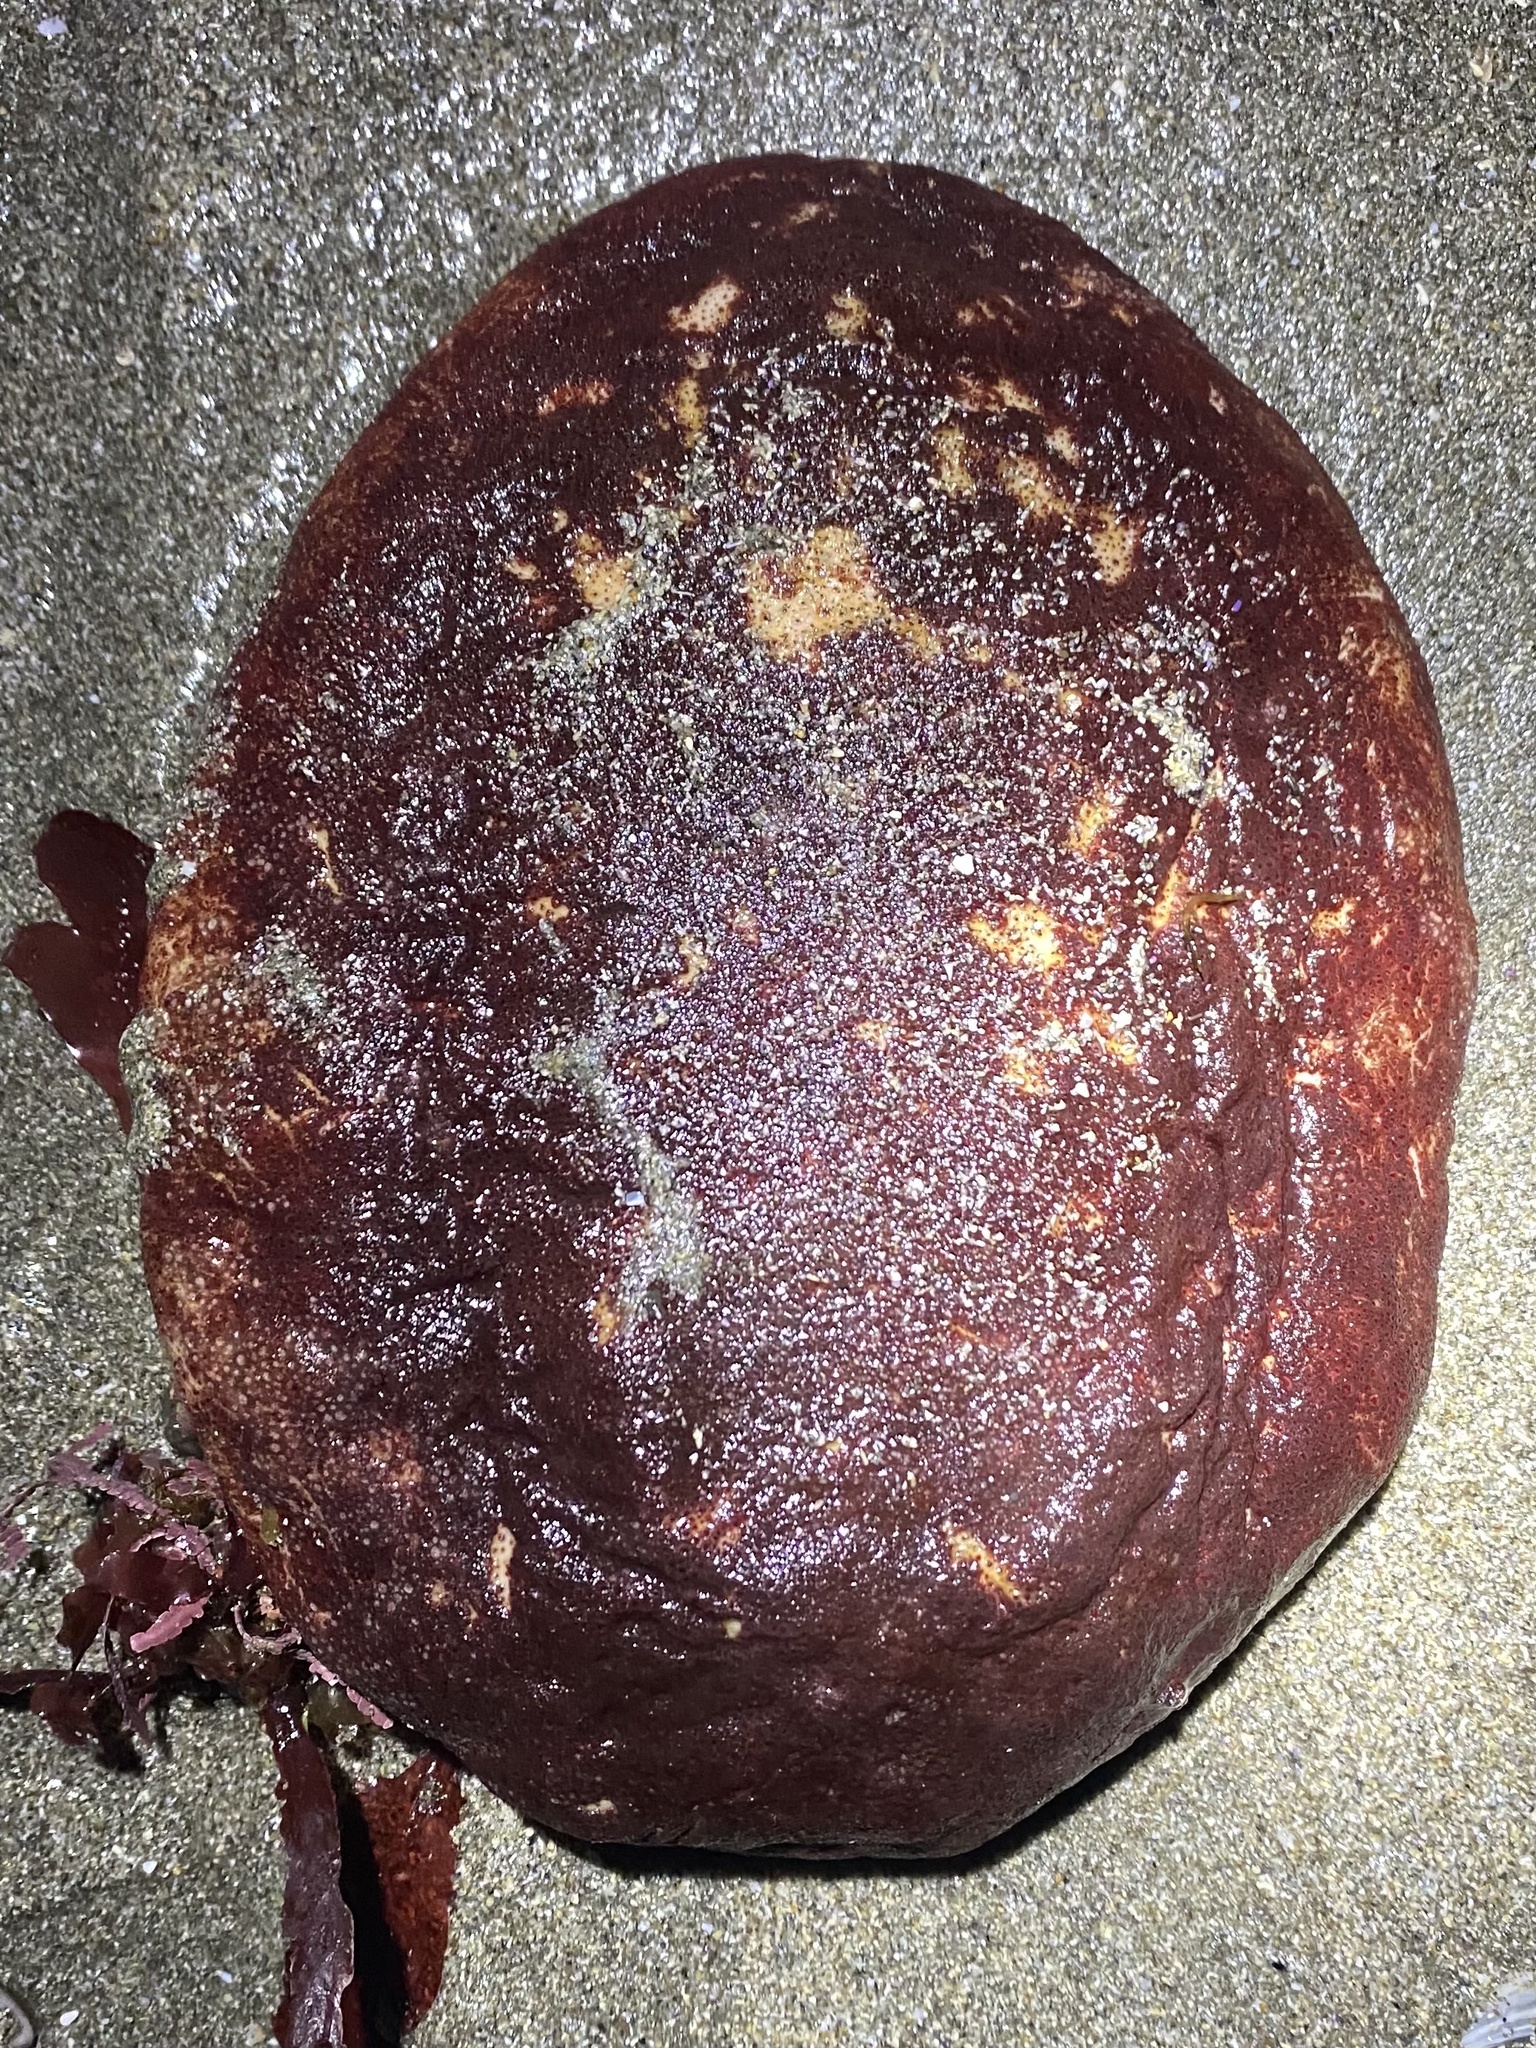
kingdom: Animalia
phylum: Mollusca
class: Polyplacophora
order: Chitonida
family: Acanthochitonidae
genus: Cryptochiton
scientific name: Cryptochiton stelleri
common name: Giant pacific chiton
